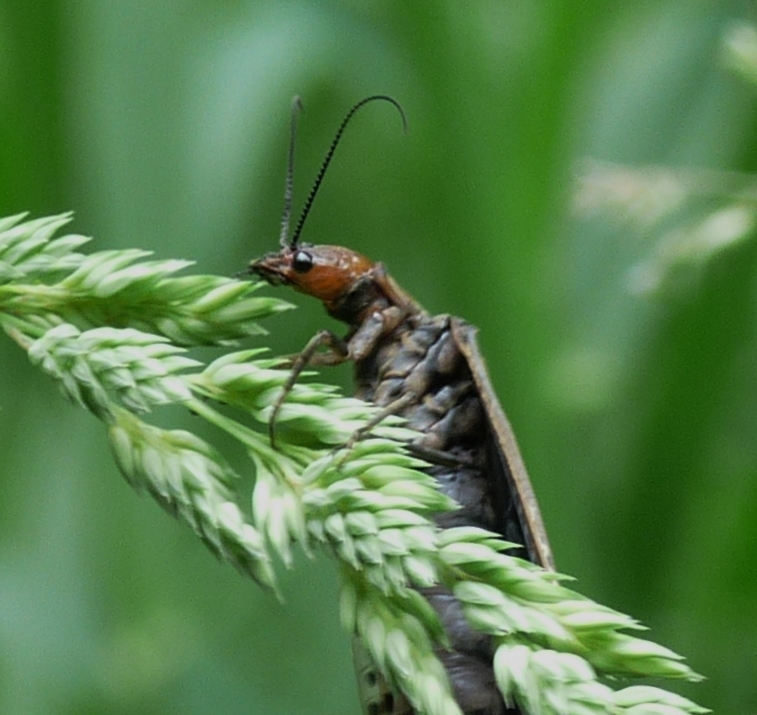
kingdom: Animalia
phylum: Arthropoda
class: Insecta
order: Megaloptera
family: Corydalidae
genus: Nigronia
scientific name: Nigronia serricornis
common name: Serrate dark fishfly
